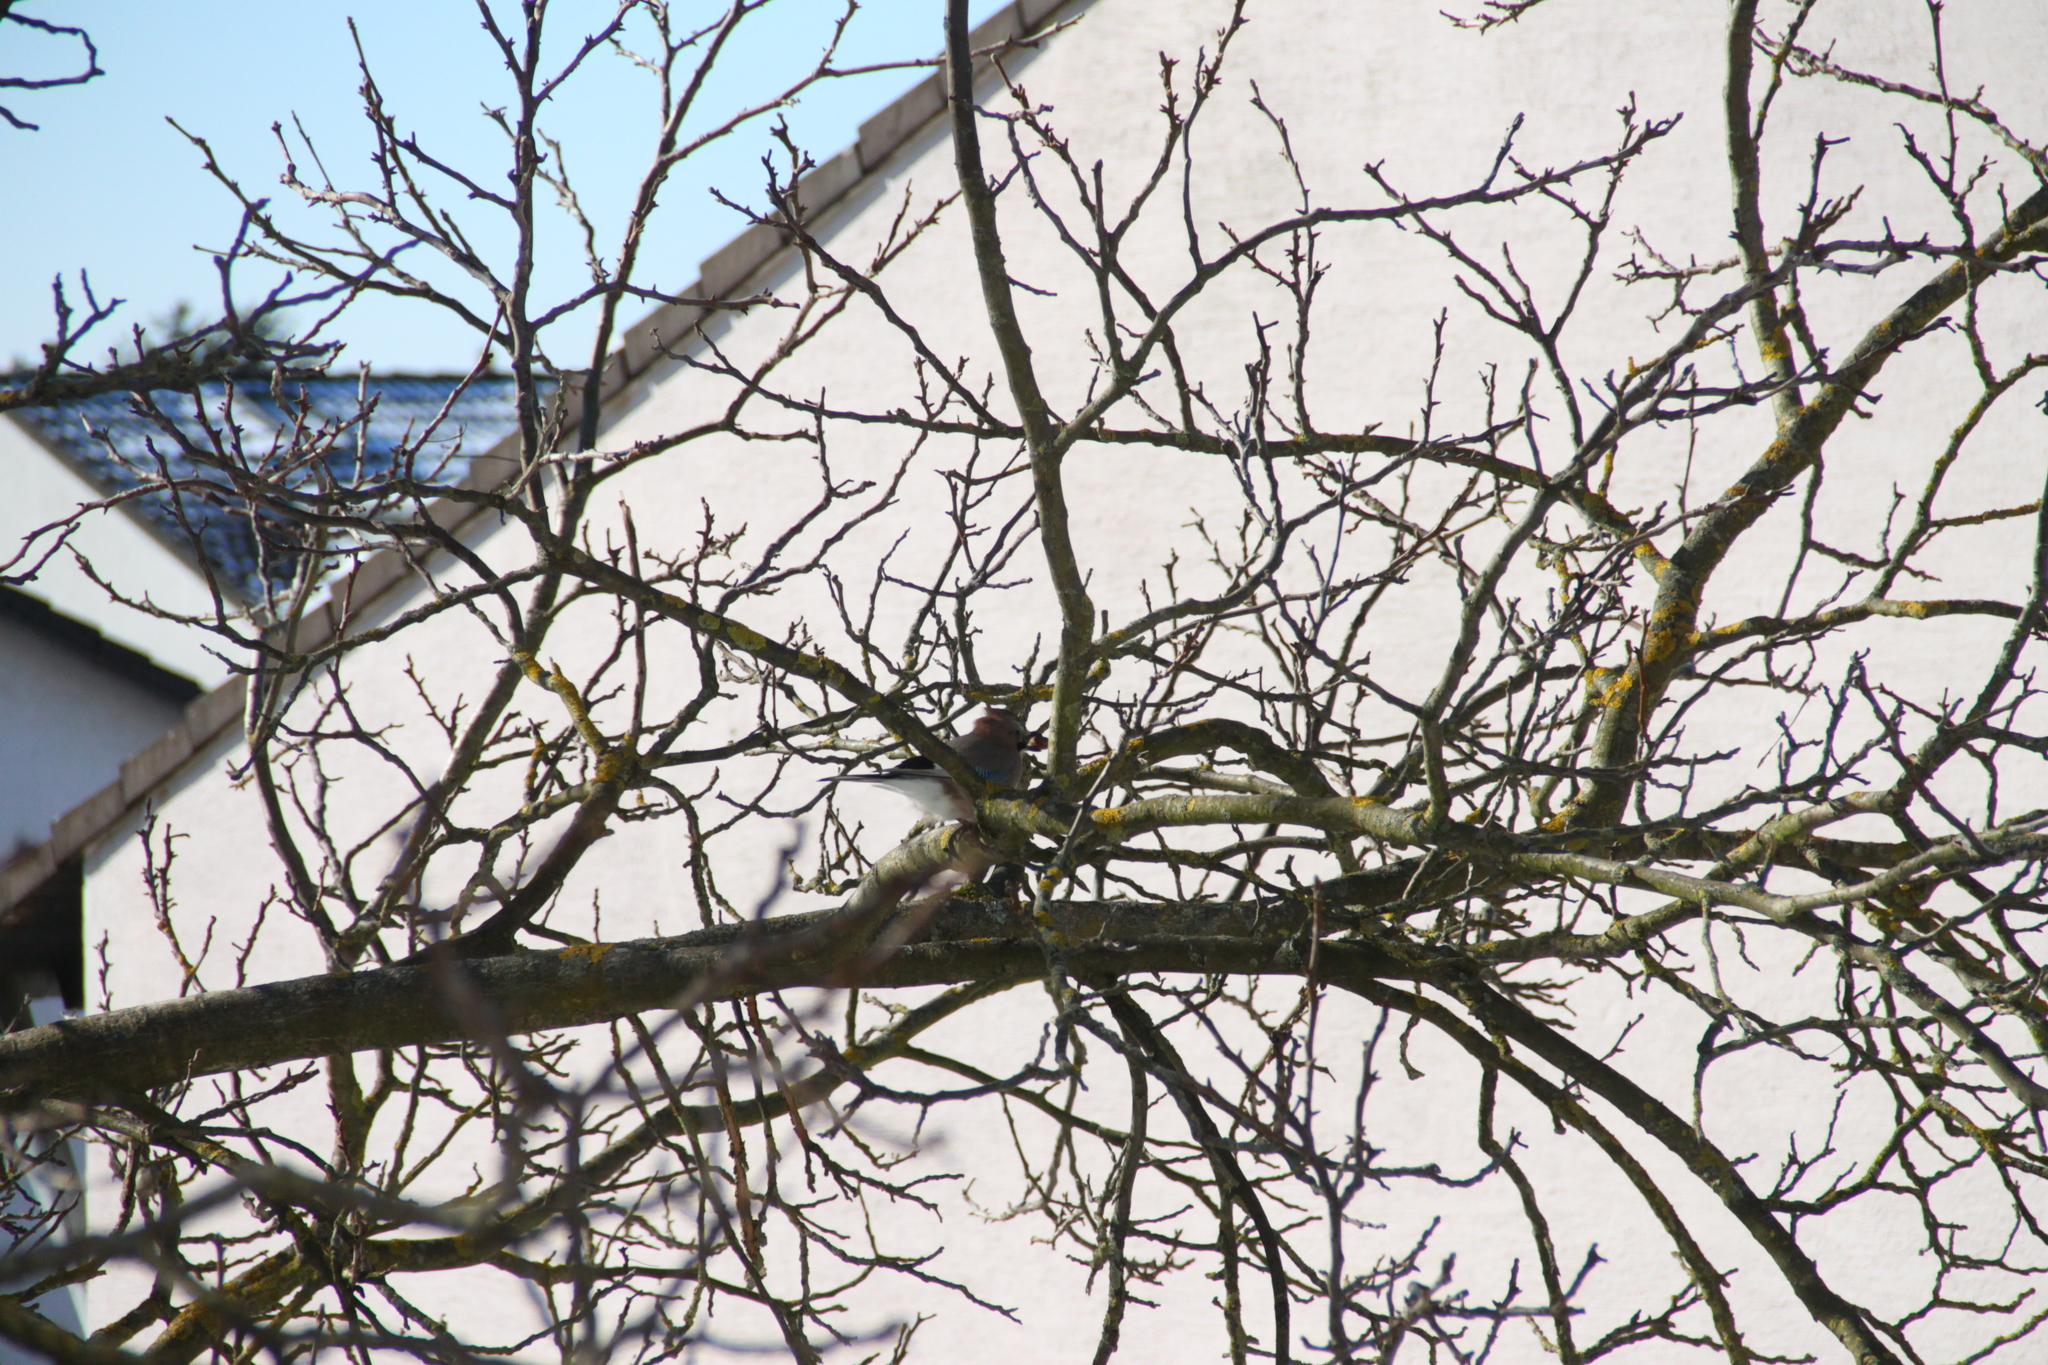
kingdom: Animalia
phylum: Chordata
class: Aves
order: Passeriformes
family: Corvidae
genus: Garrulus
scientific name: Garrulus glandarius
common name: Eurasian jay
